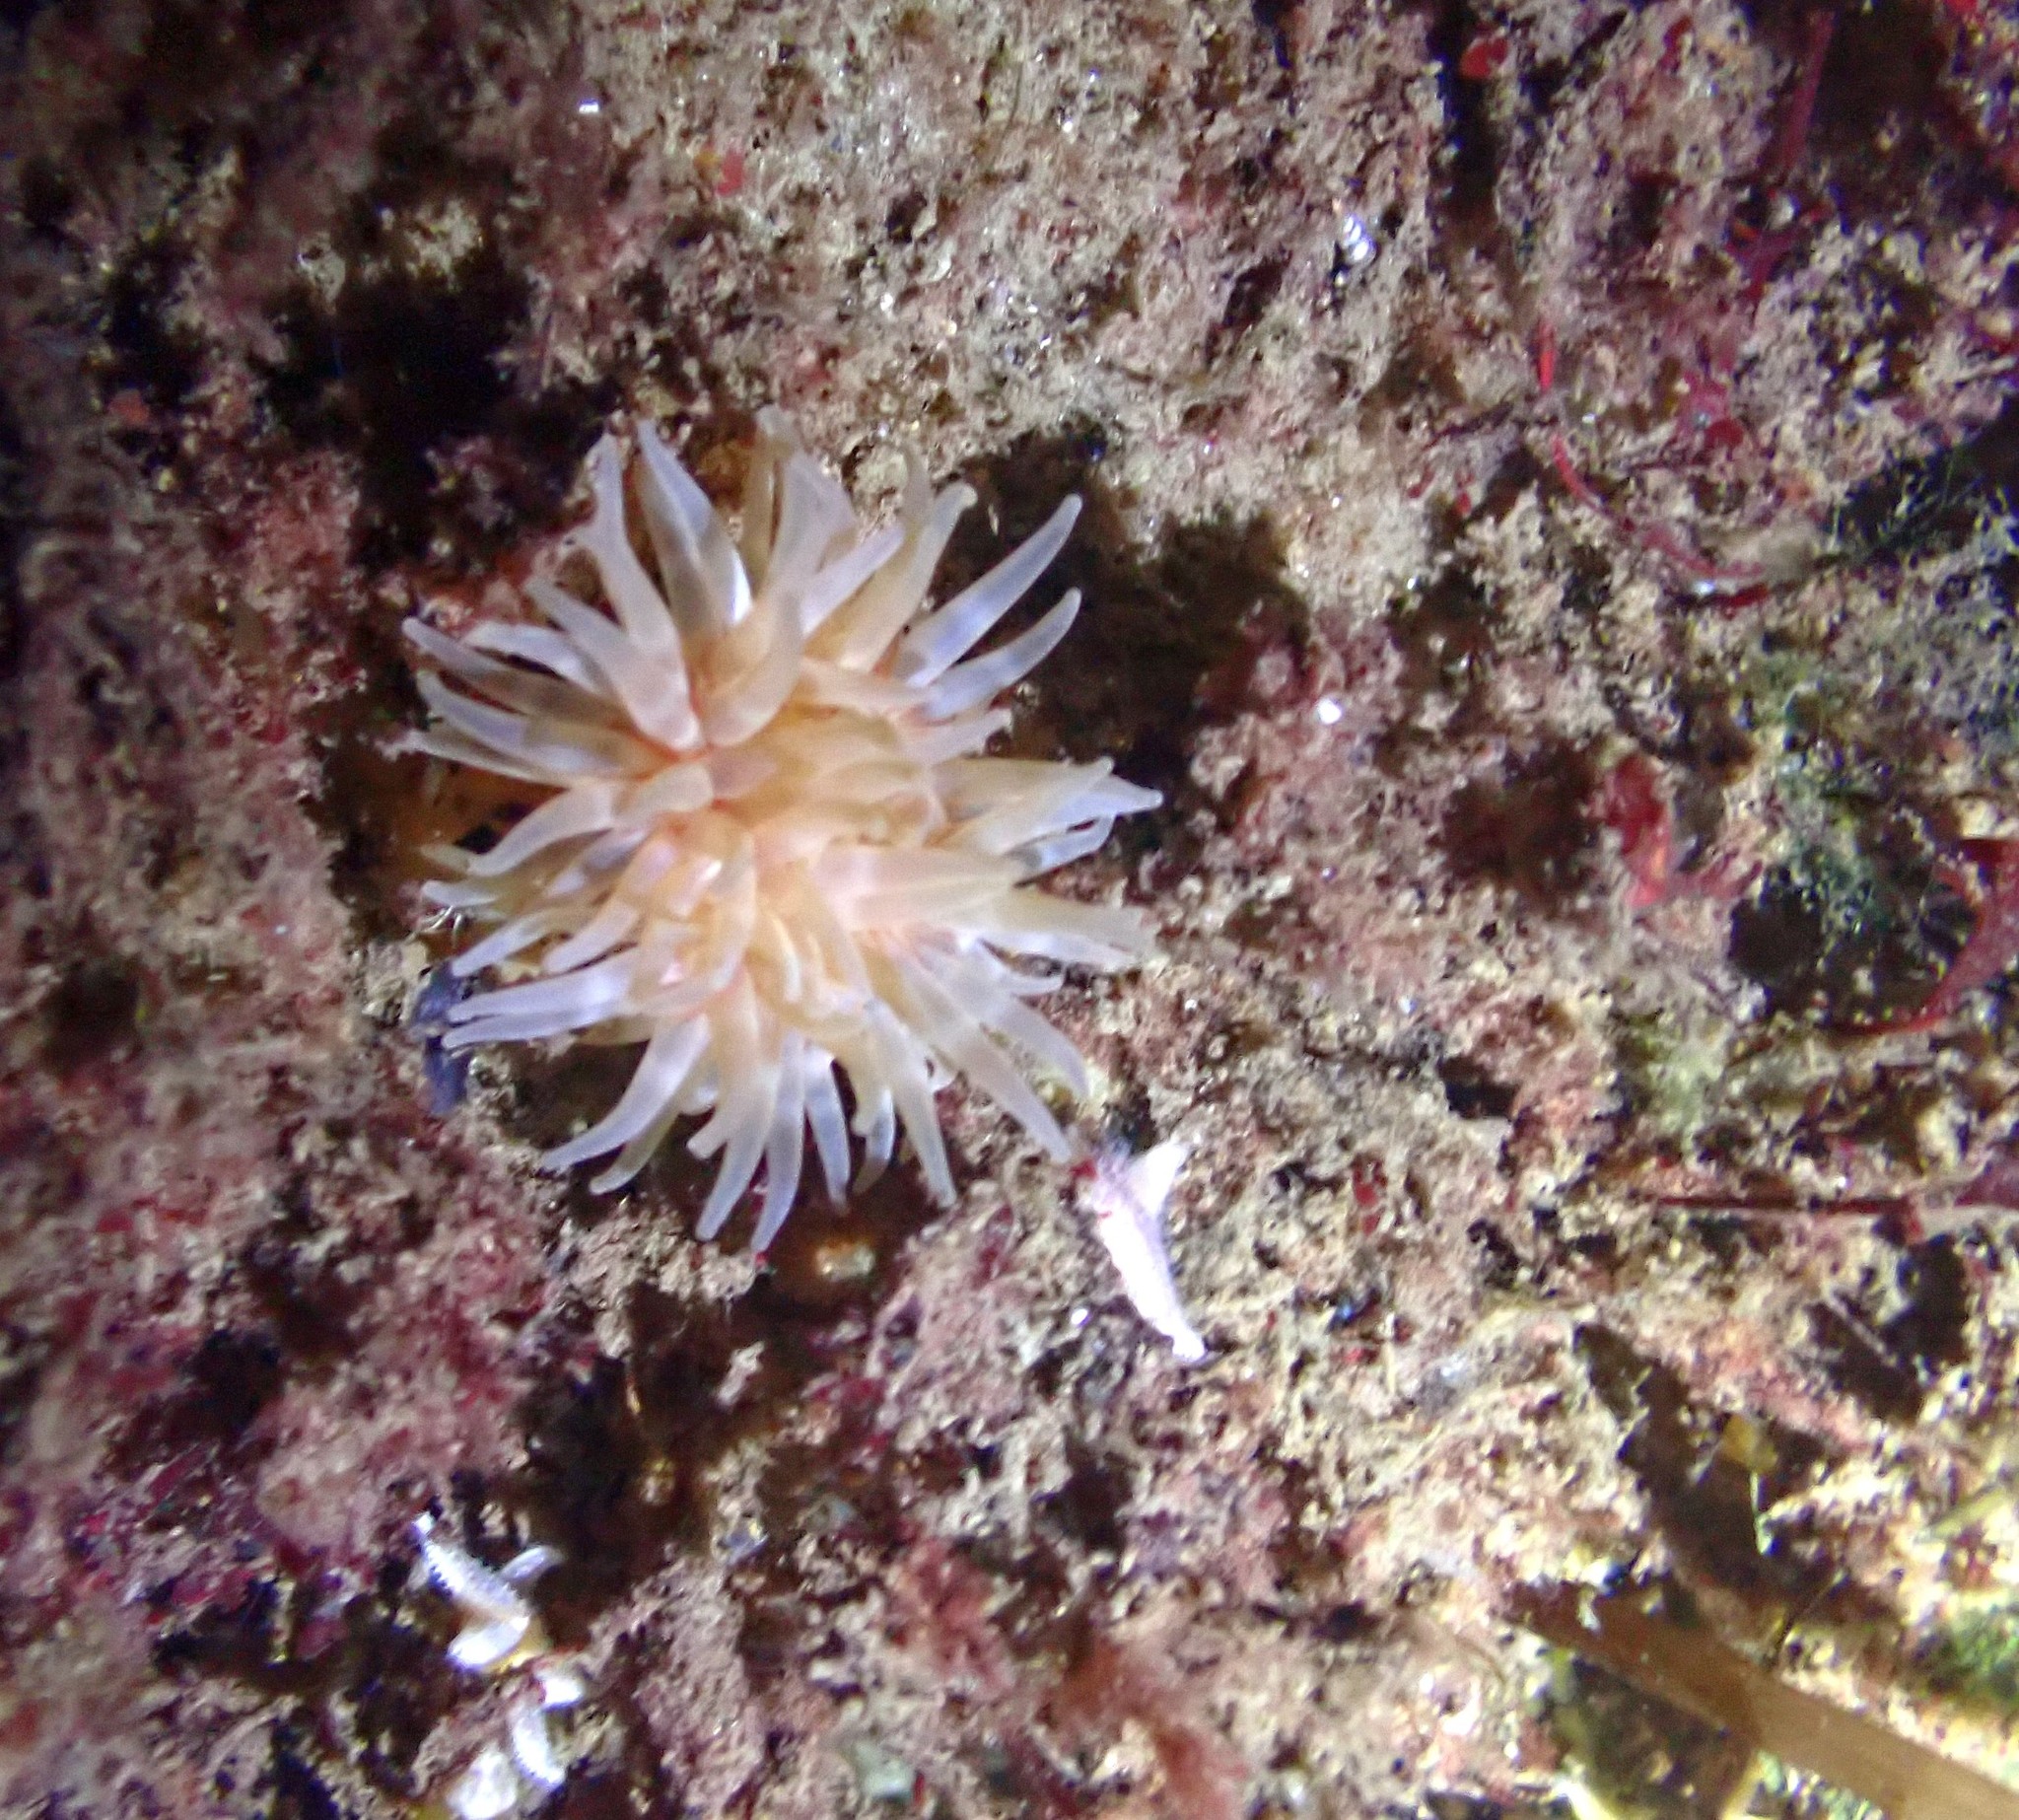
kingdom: Animalia
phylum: Cnidaria
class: Anthozoa
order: Actiniaria
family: Actiniidae
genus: Urticina
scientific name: Urticina felina
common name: Dahlia anemone
